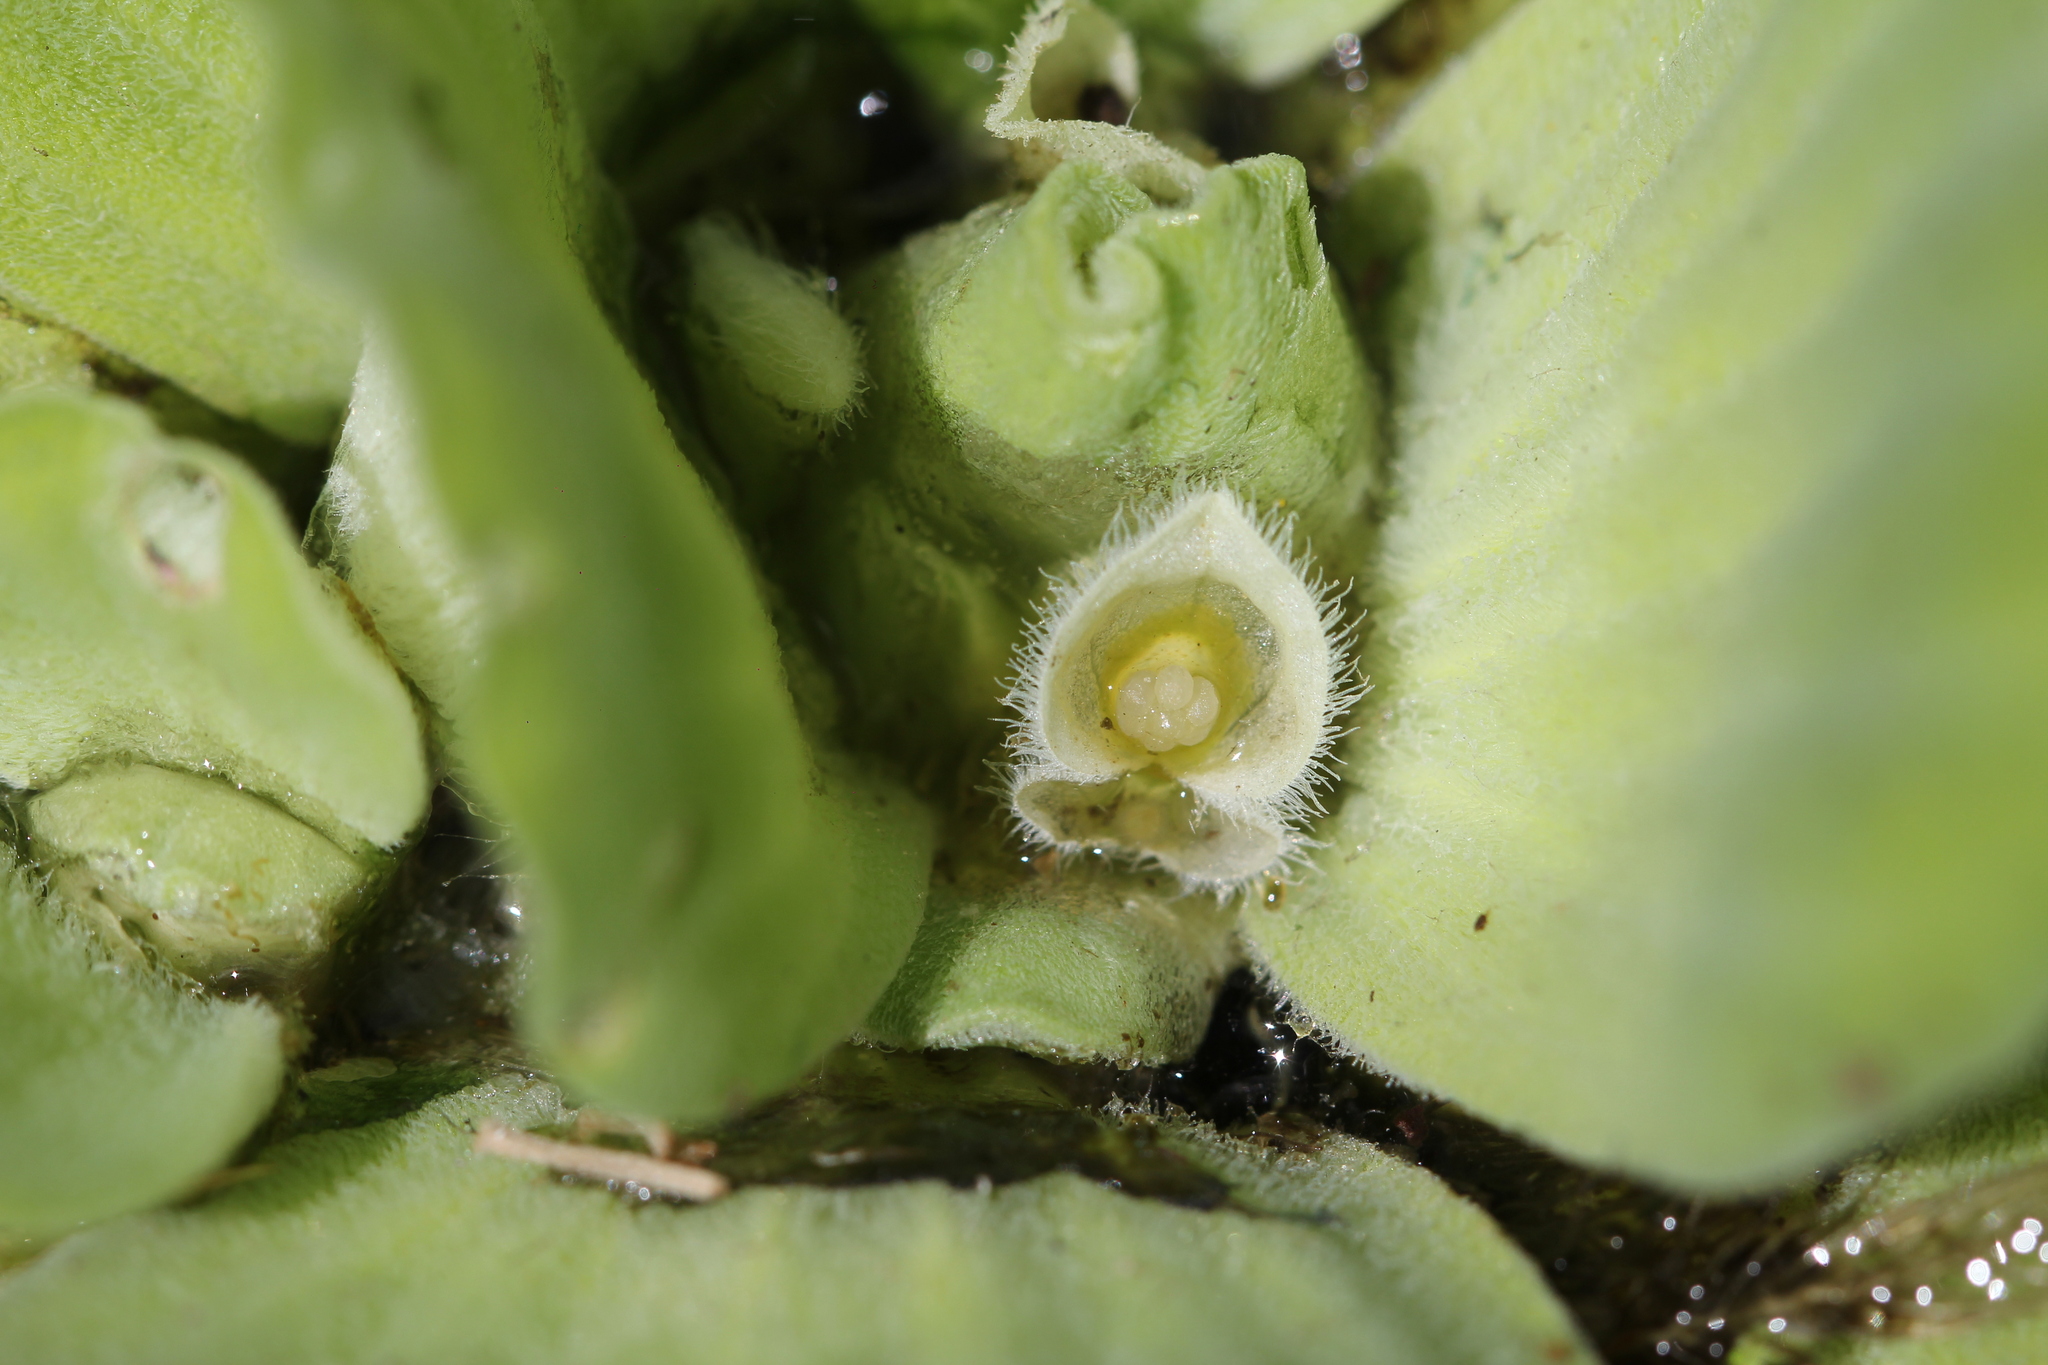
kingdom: Plantae
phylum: Tracheophyta
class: Liliopsida
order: Alismatales
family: Araceae
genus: Pistia
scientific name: Pistia stratiotes
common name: Water lettuce
